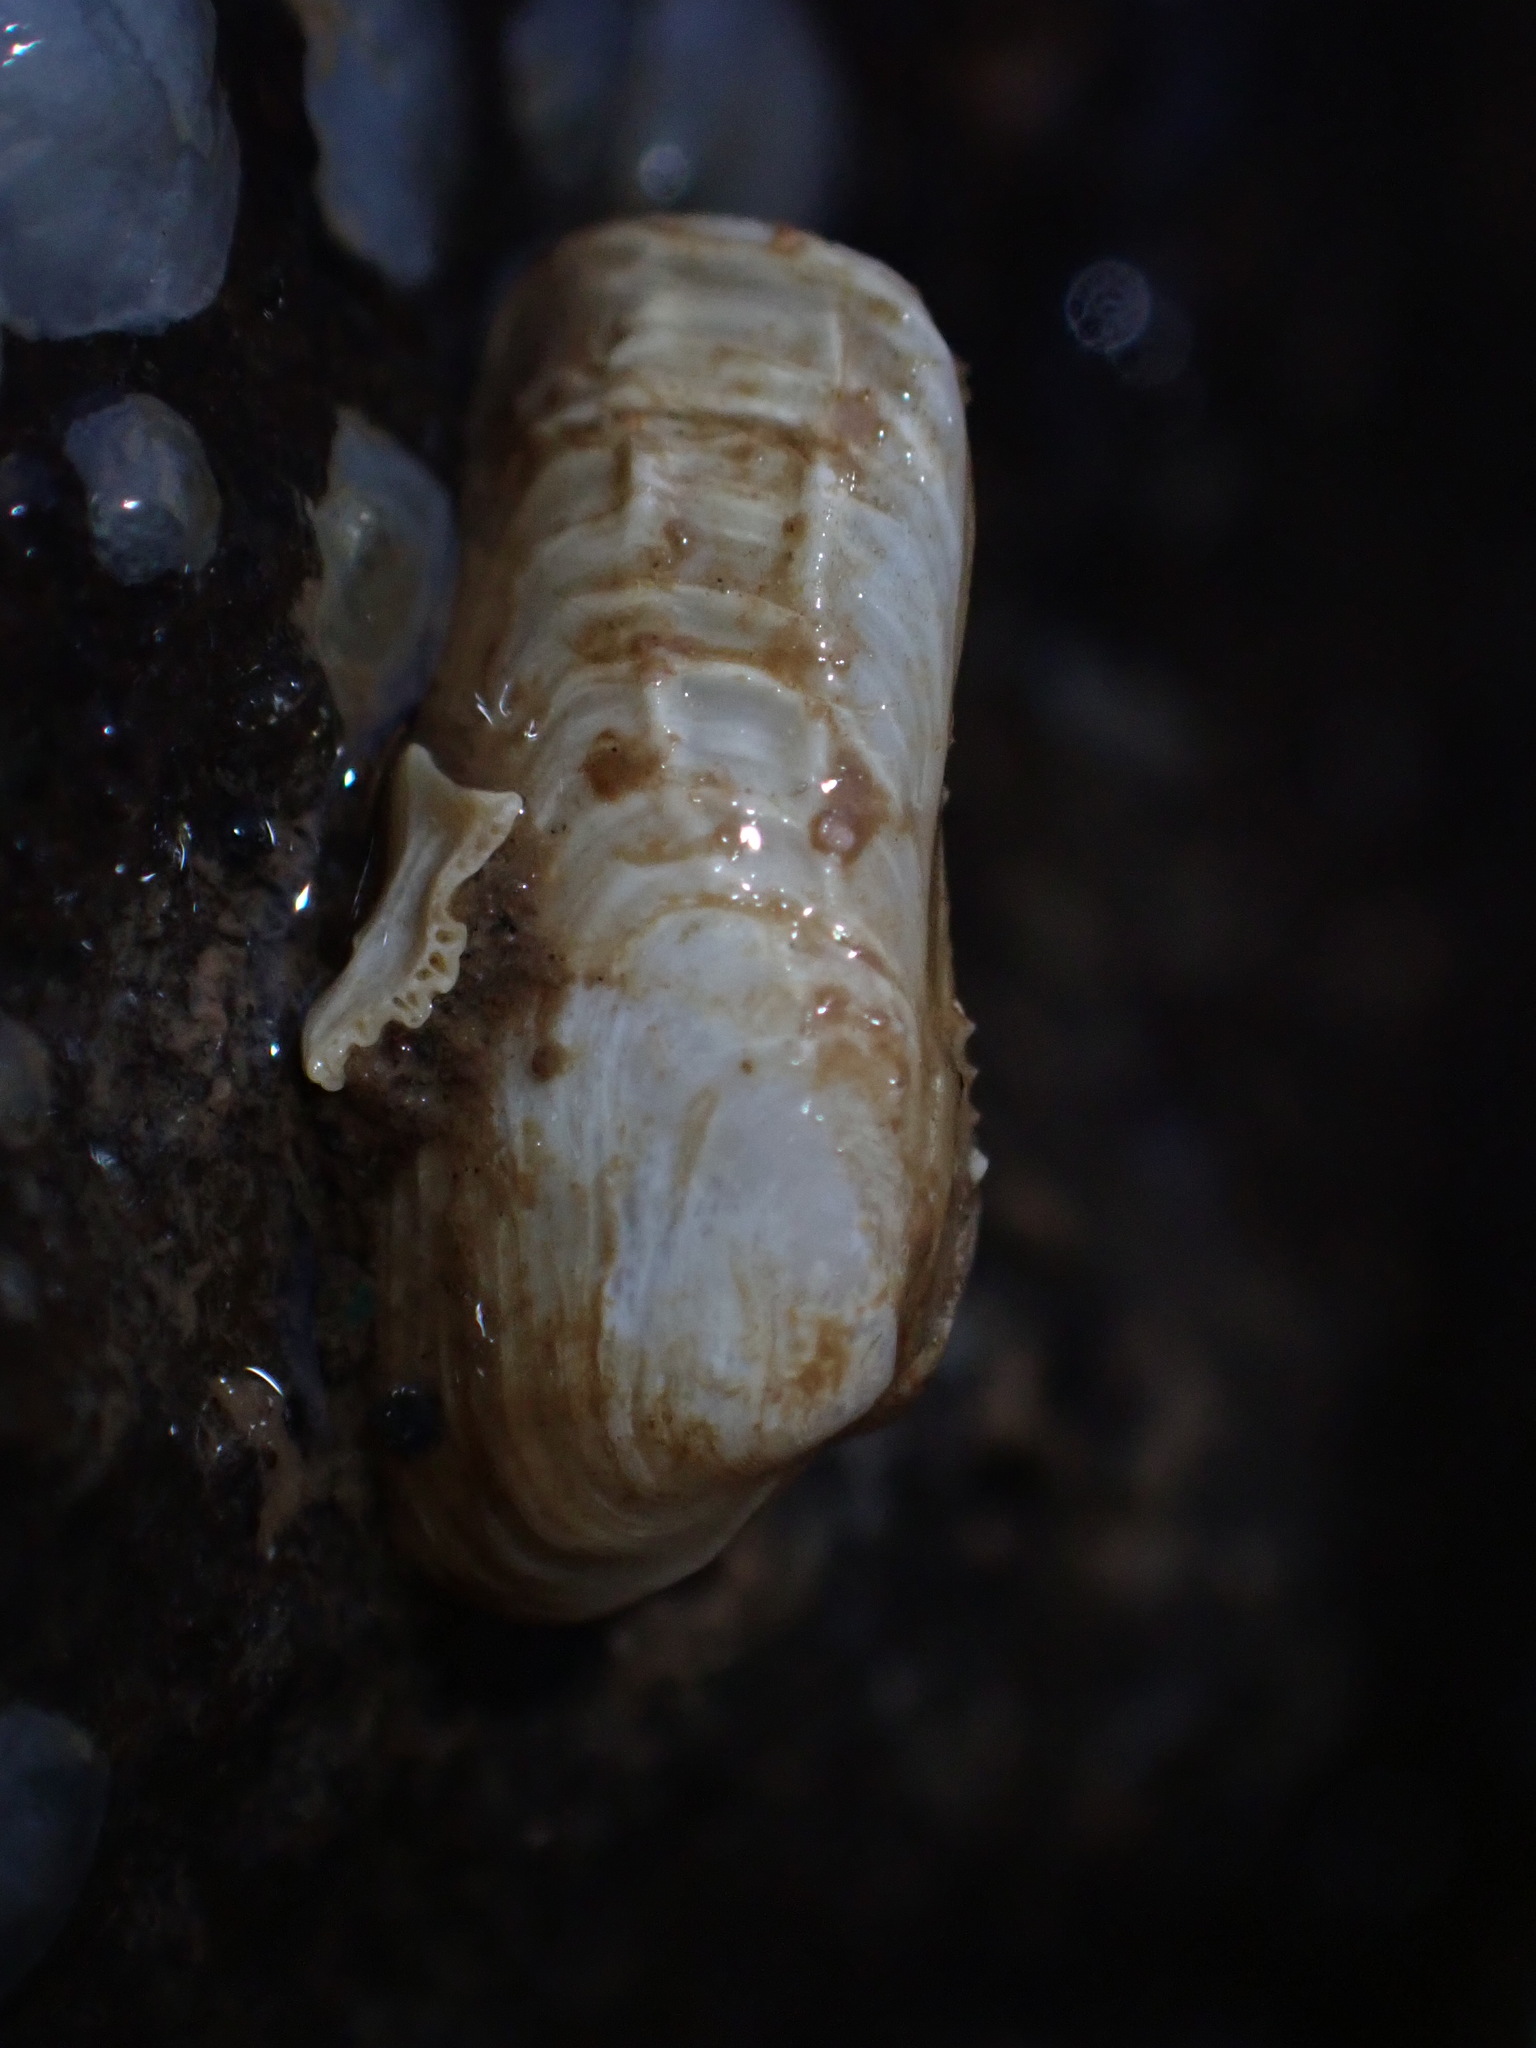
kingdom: Animalia
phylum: Mollusca
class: Bivalvia
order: Adapedonta
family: Hiatellidae
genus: Hiatella
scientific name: Hiatella arctica
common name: Arctic hiatella
